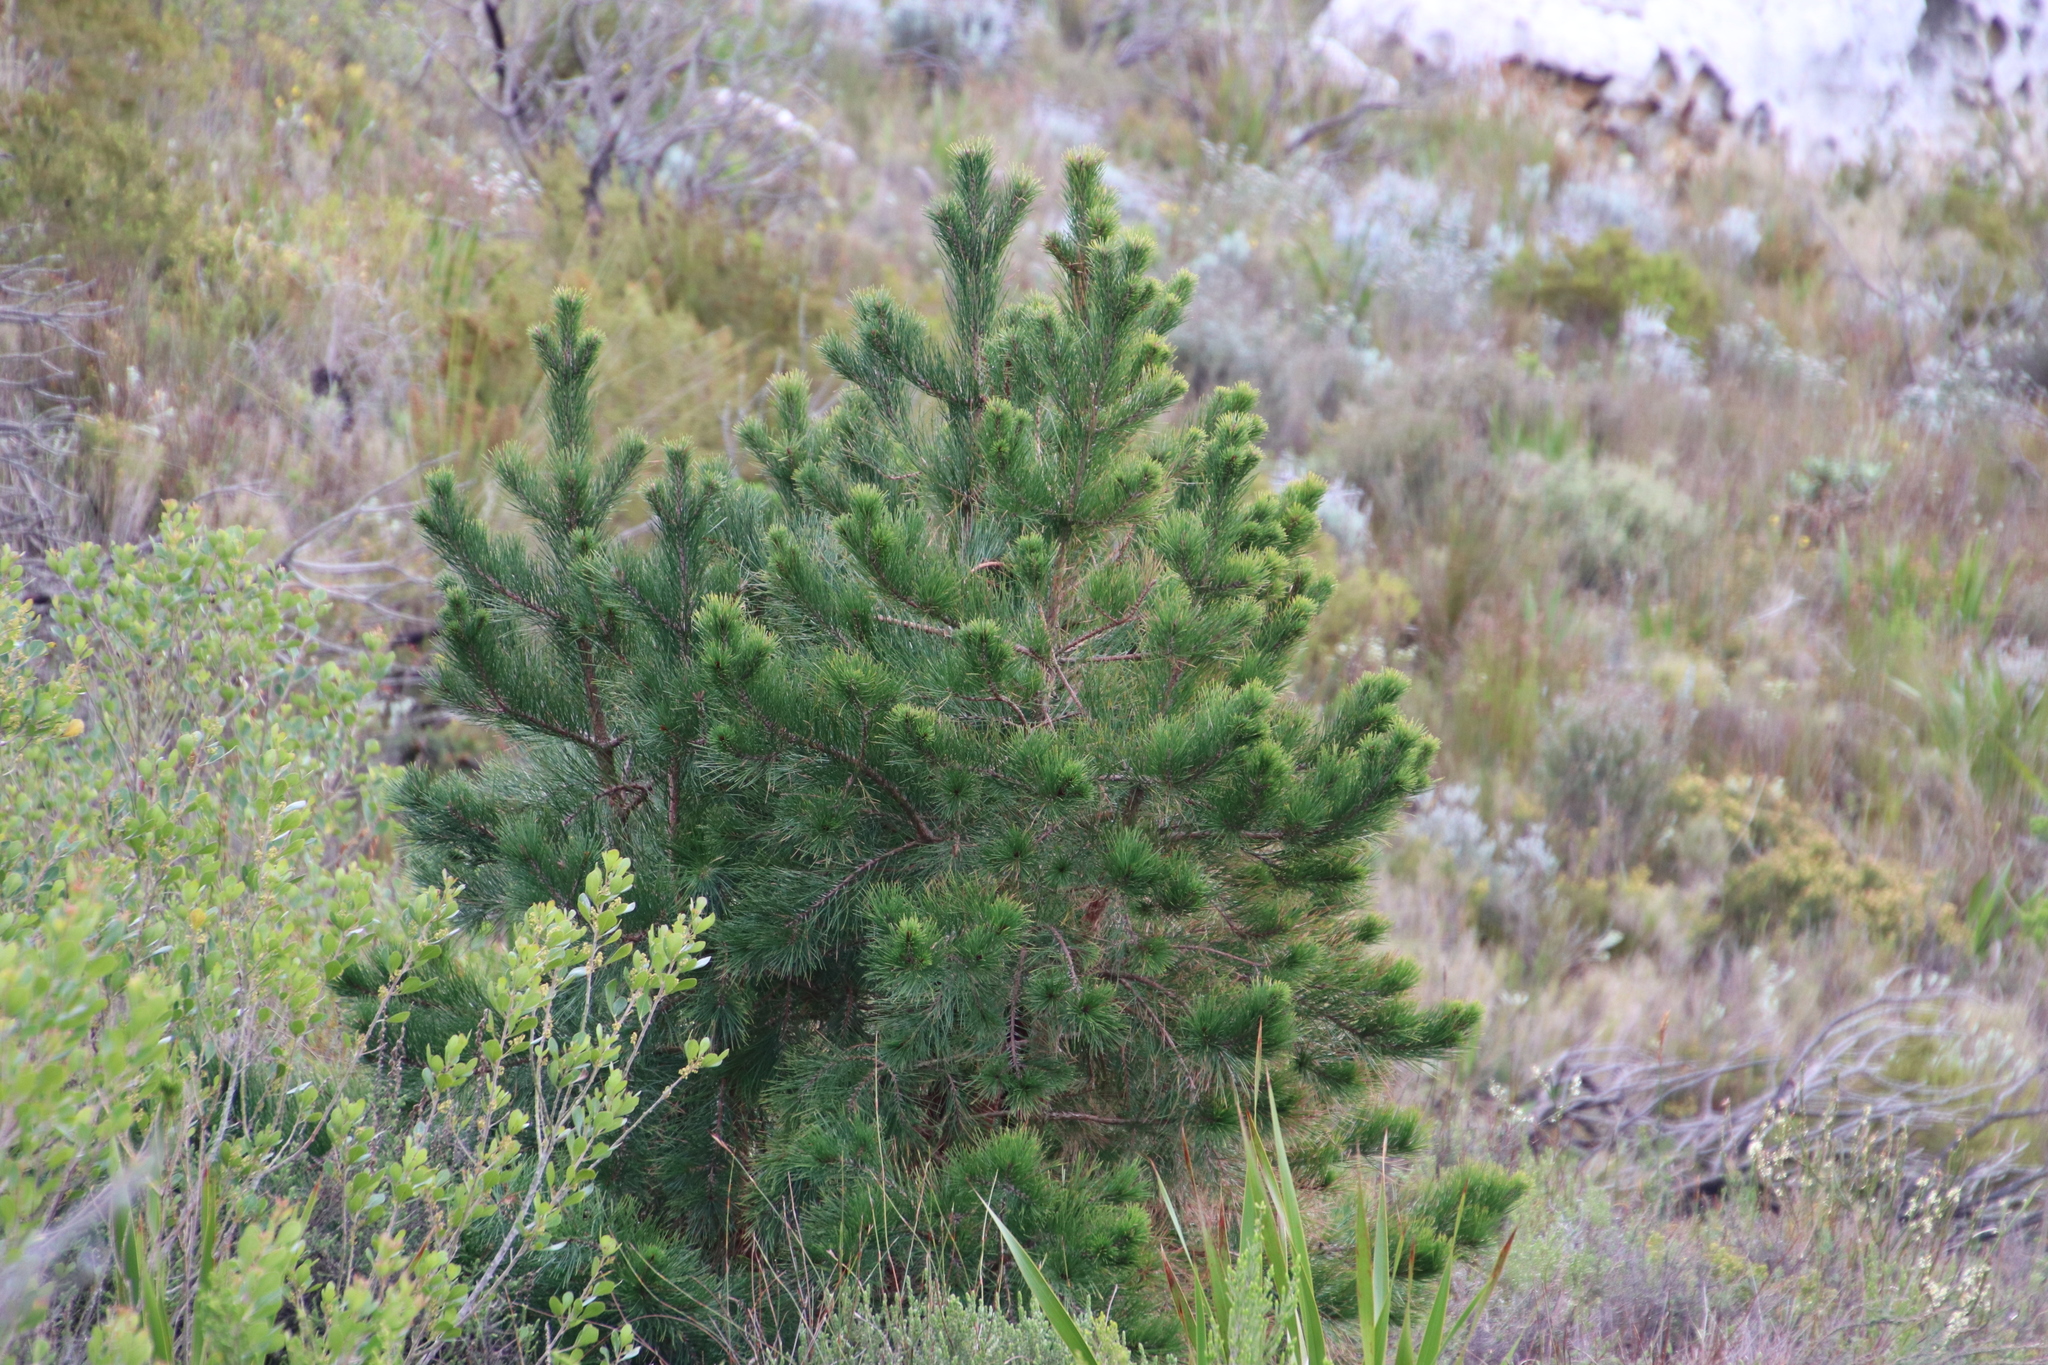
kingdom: Plantae
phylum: Tracheophyta
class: Pinopsida
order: Pinales
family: Pinaceae
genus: Pinus
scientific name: Pinus radiata
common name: Monterey pine
